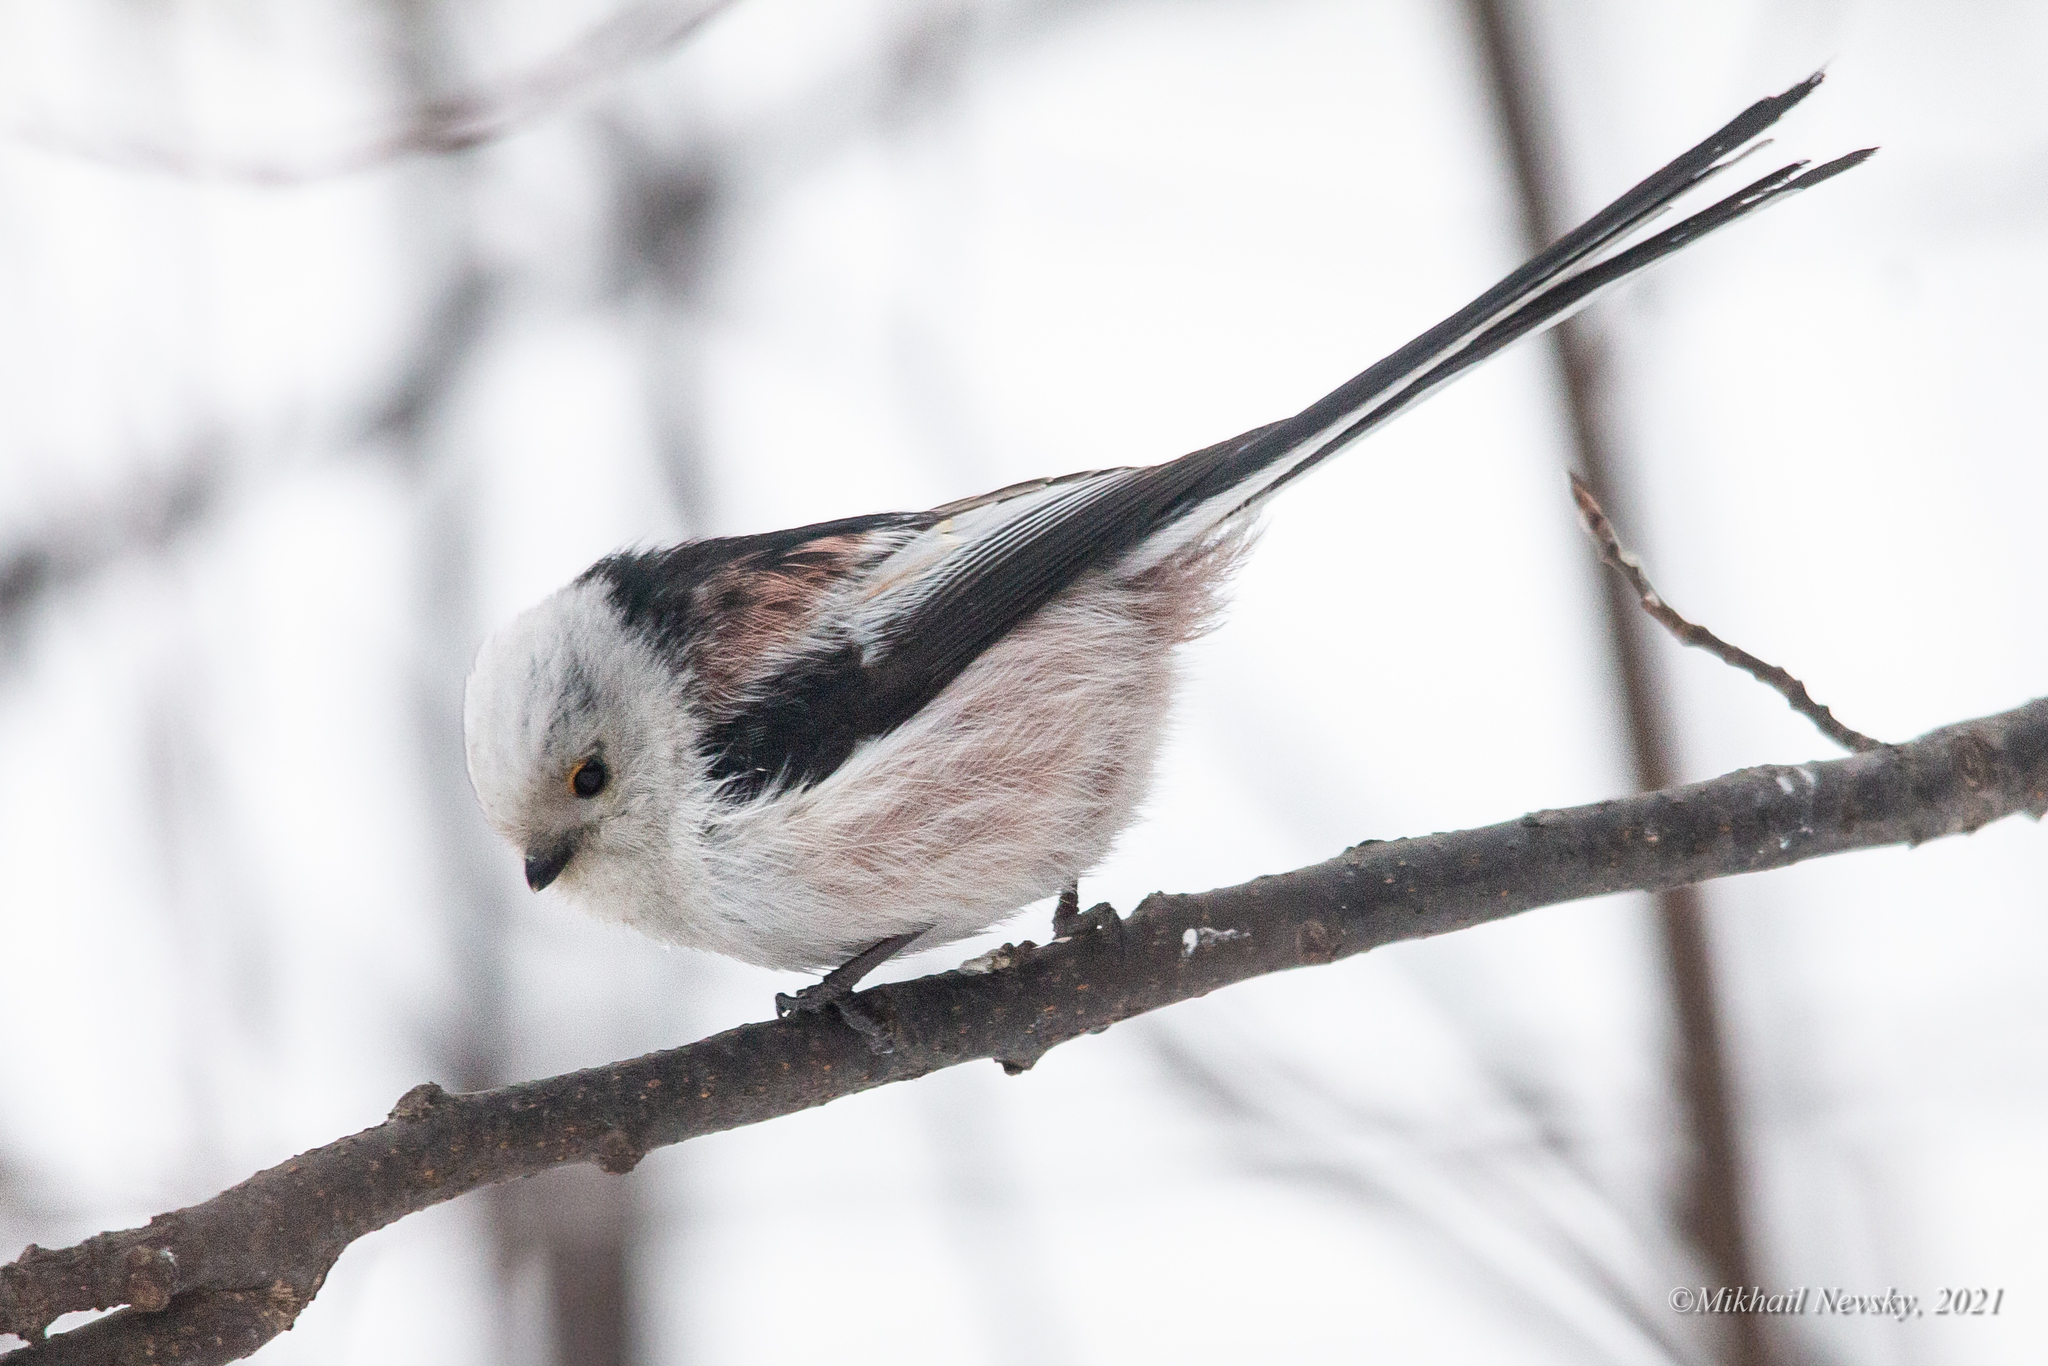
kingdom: Animalia
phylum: Chordata
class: Aves
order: Passeriformes
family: Aegithalidae
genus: Aegithalos
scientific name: Aegithalos caudatus
